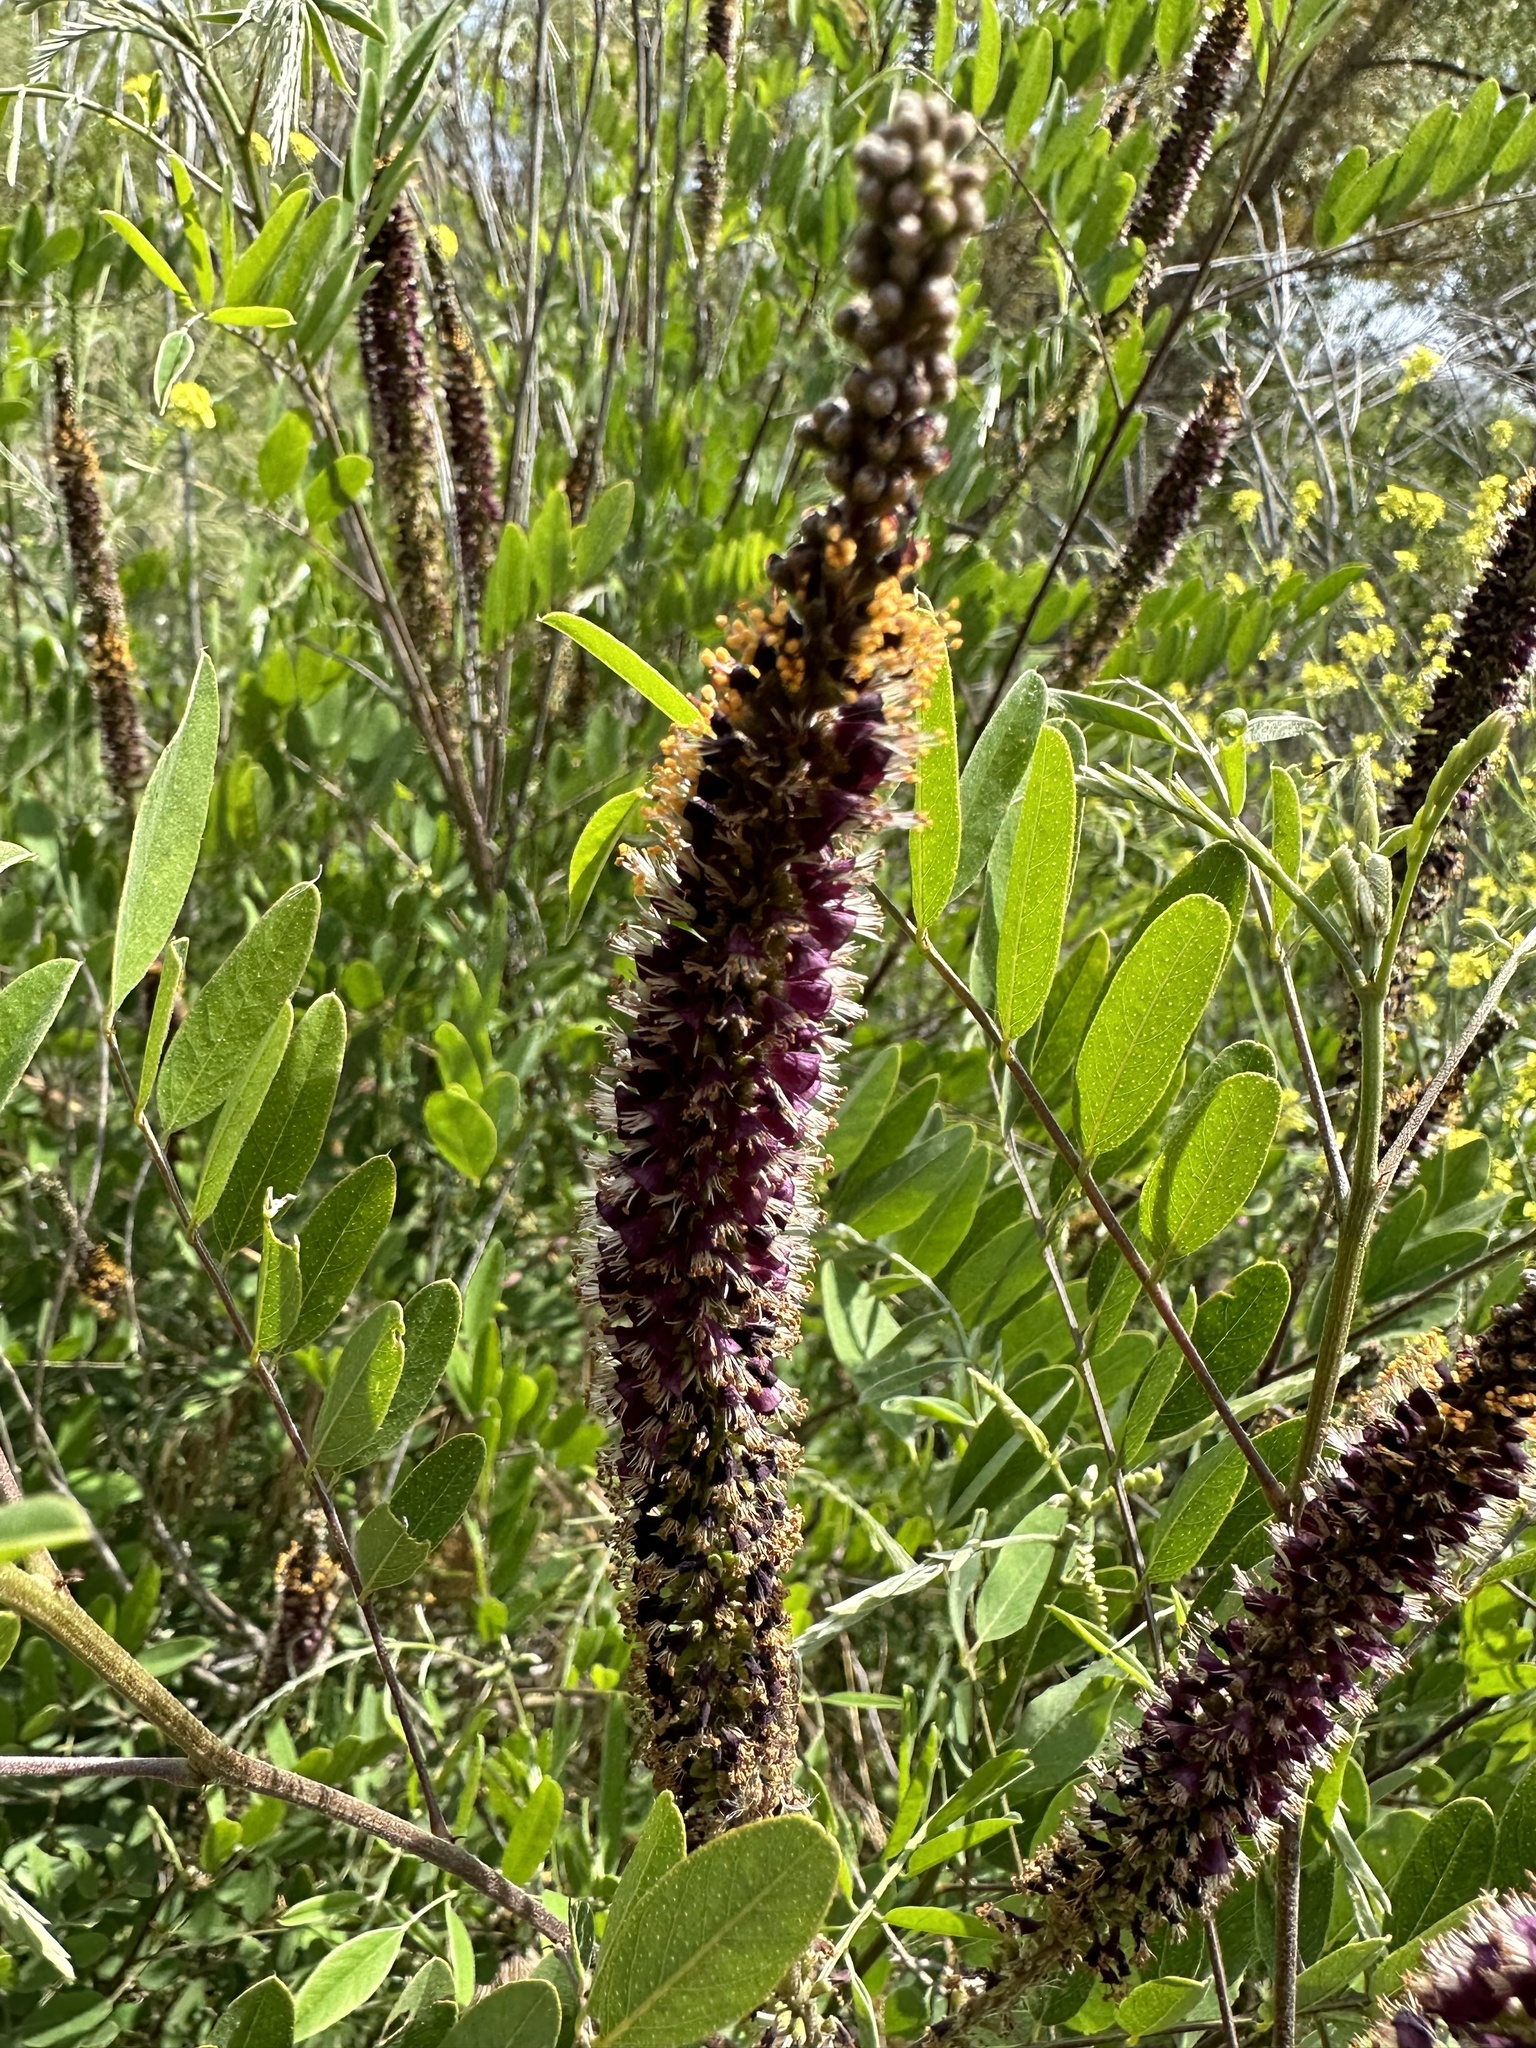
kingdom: Plantae
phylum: Tracheophyta
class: Magnoliopsida
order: Fabales
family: Fabaceae
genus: Amorpha
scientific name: Amorpha fruticosa
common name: False indigo
